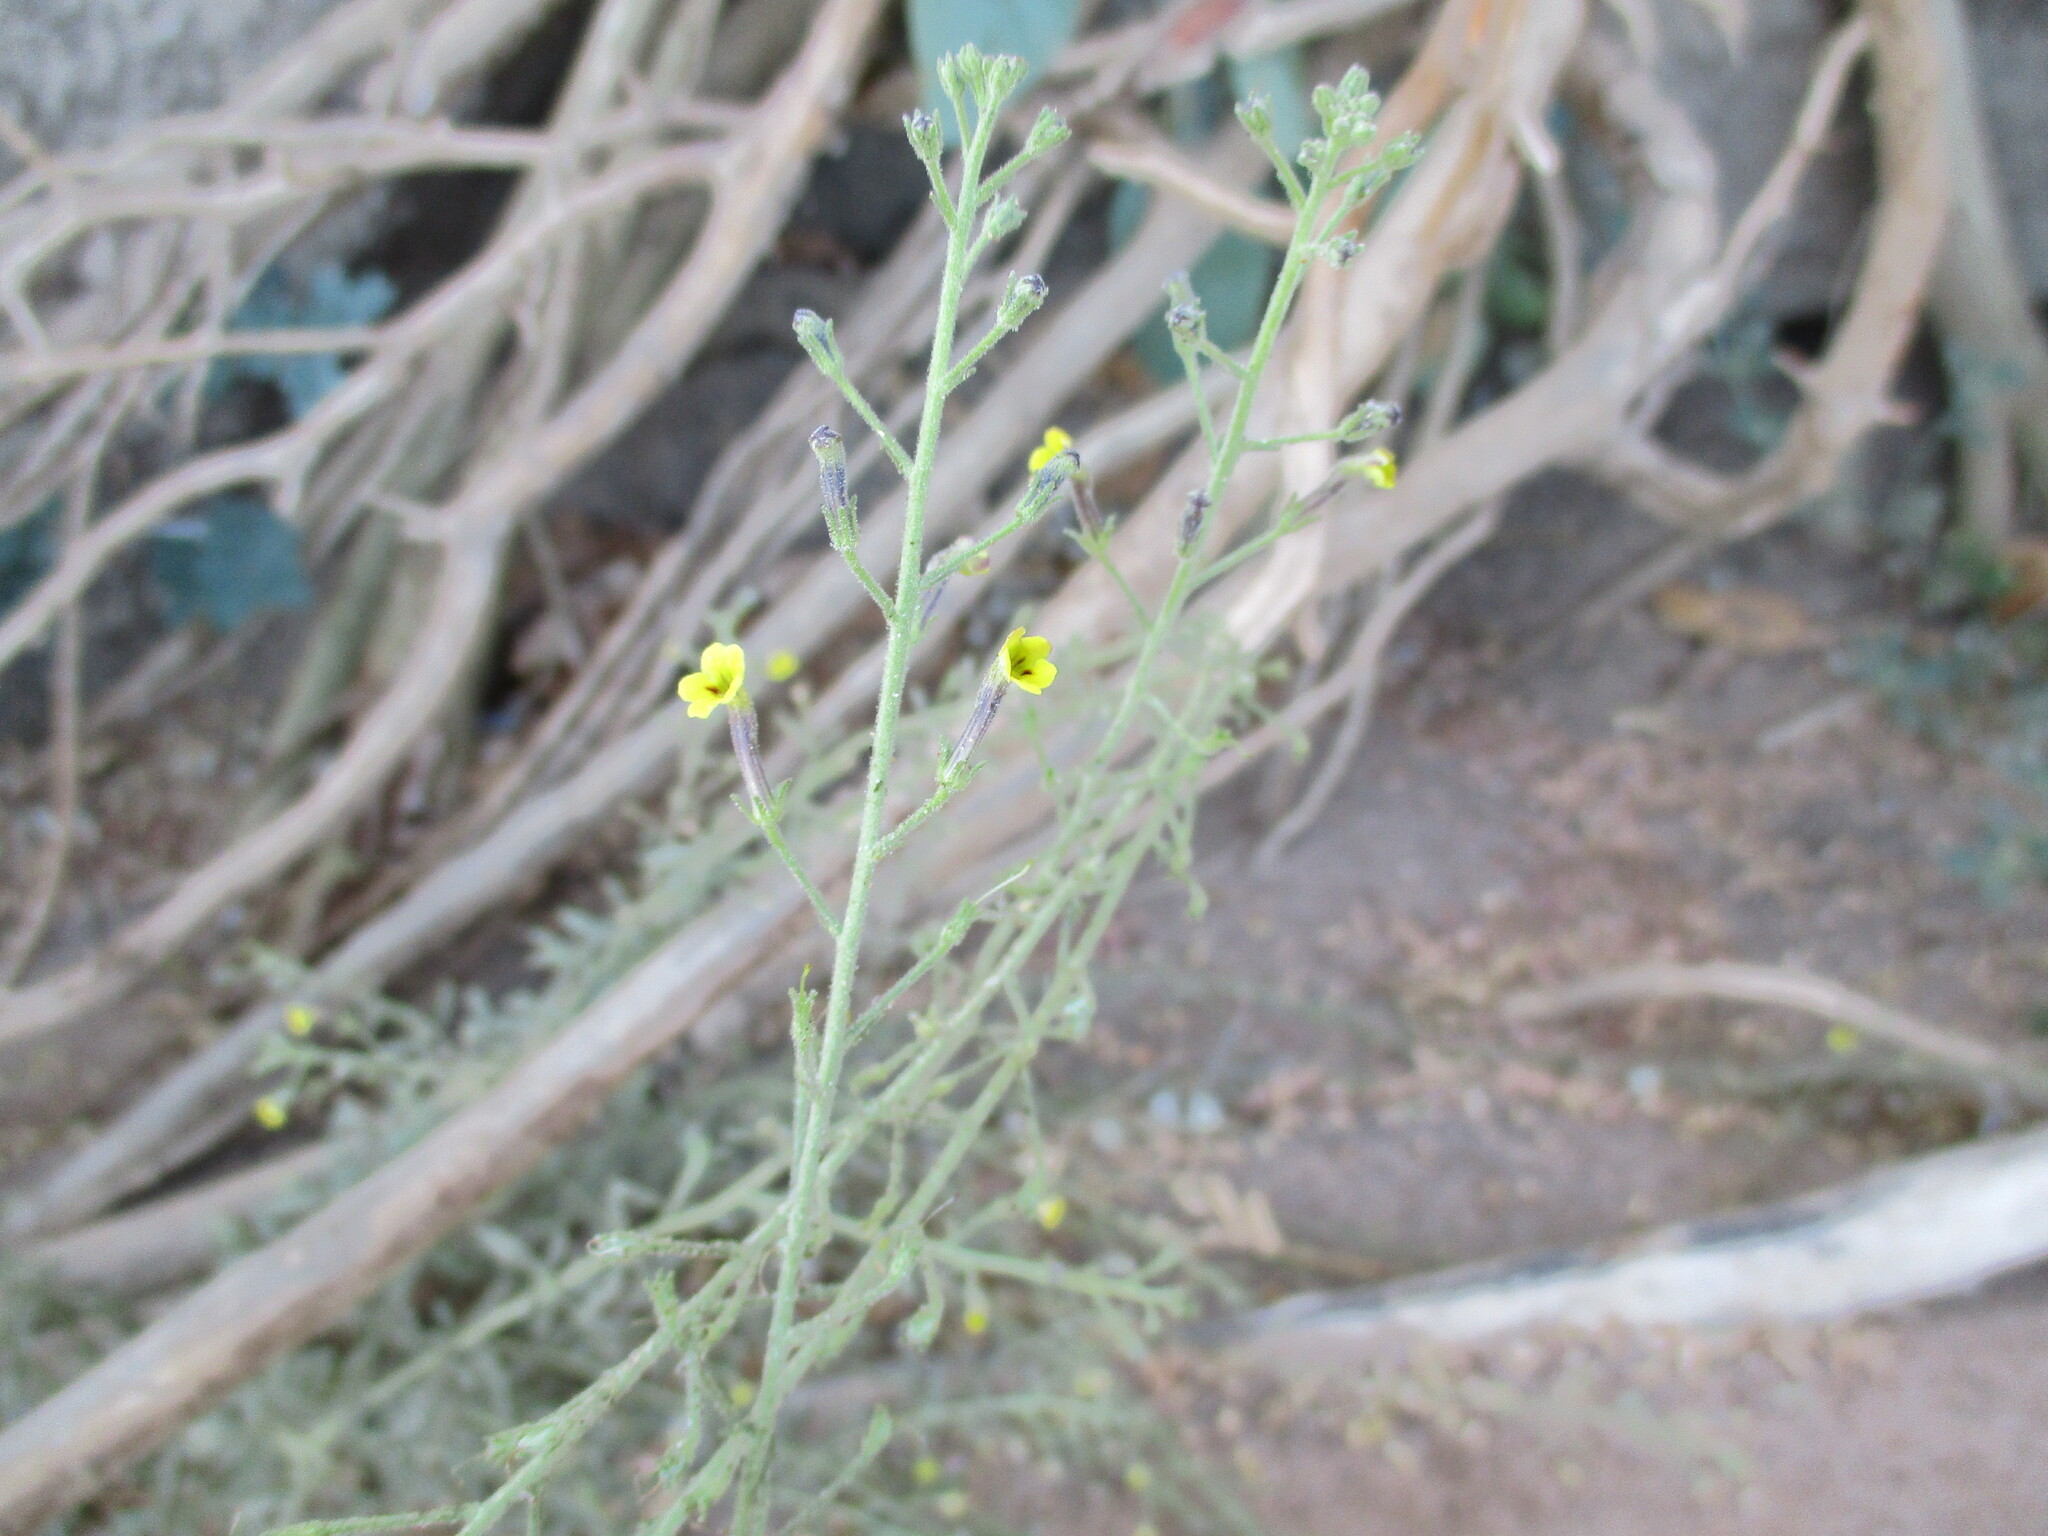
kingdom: Plantae
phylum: Tracheophyta
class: Magnoliopsida
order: Lamiales
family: Scrophulariaceae
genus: Jamesbrittenia
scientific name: Jamesbrittenia canescens
